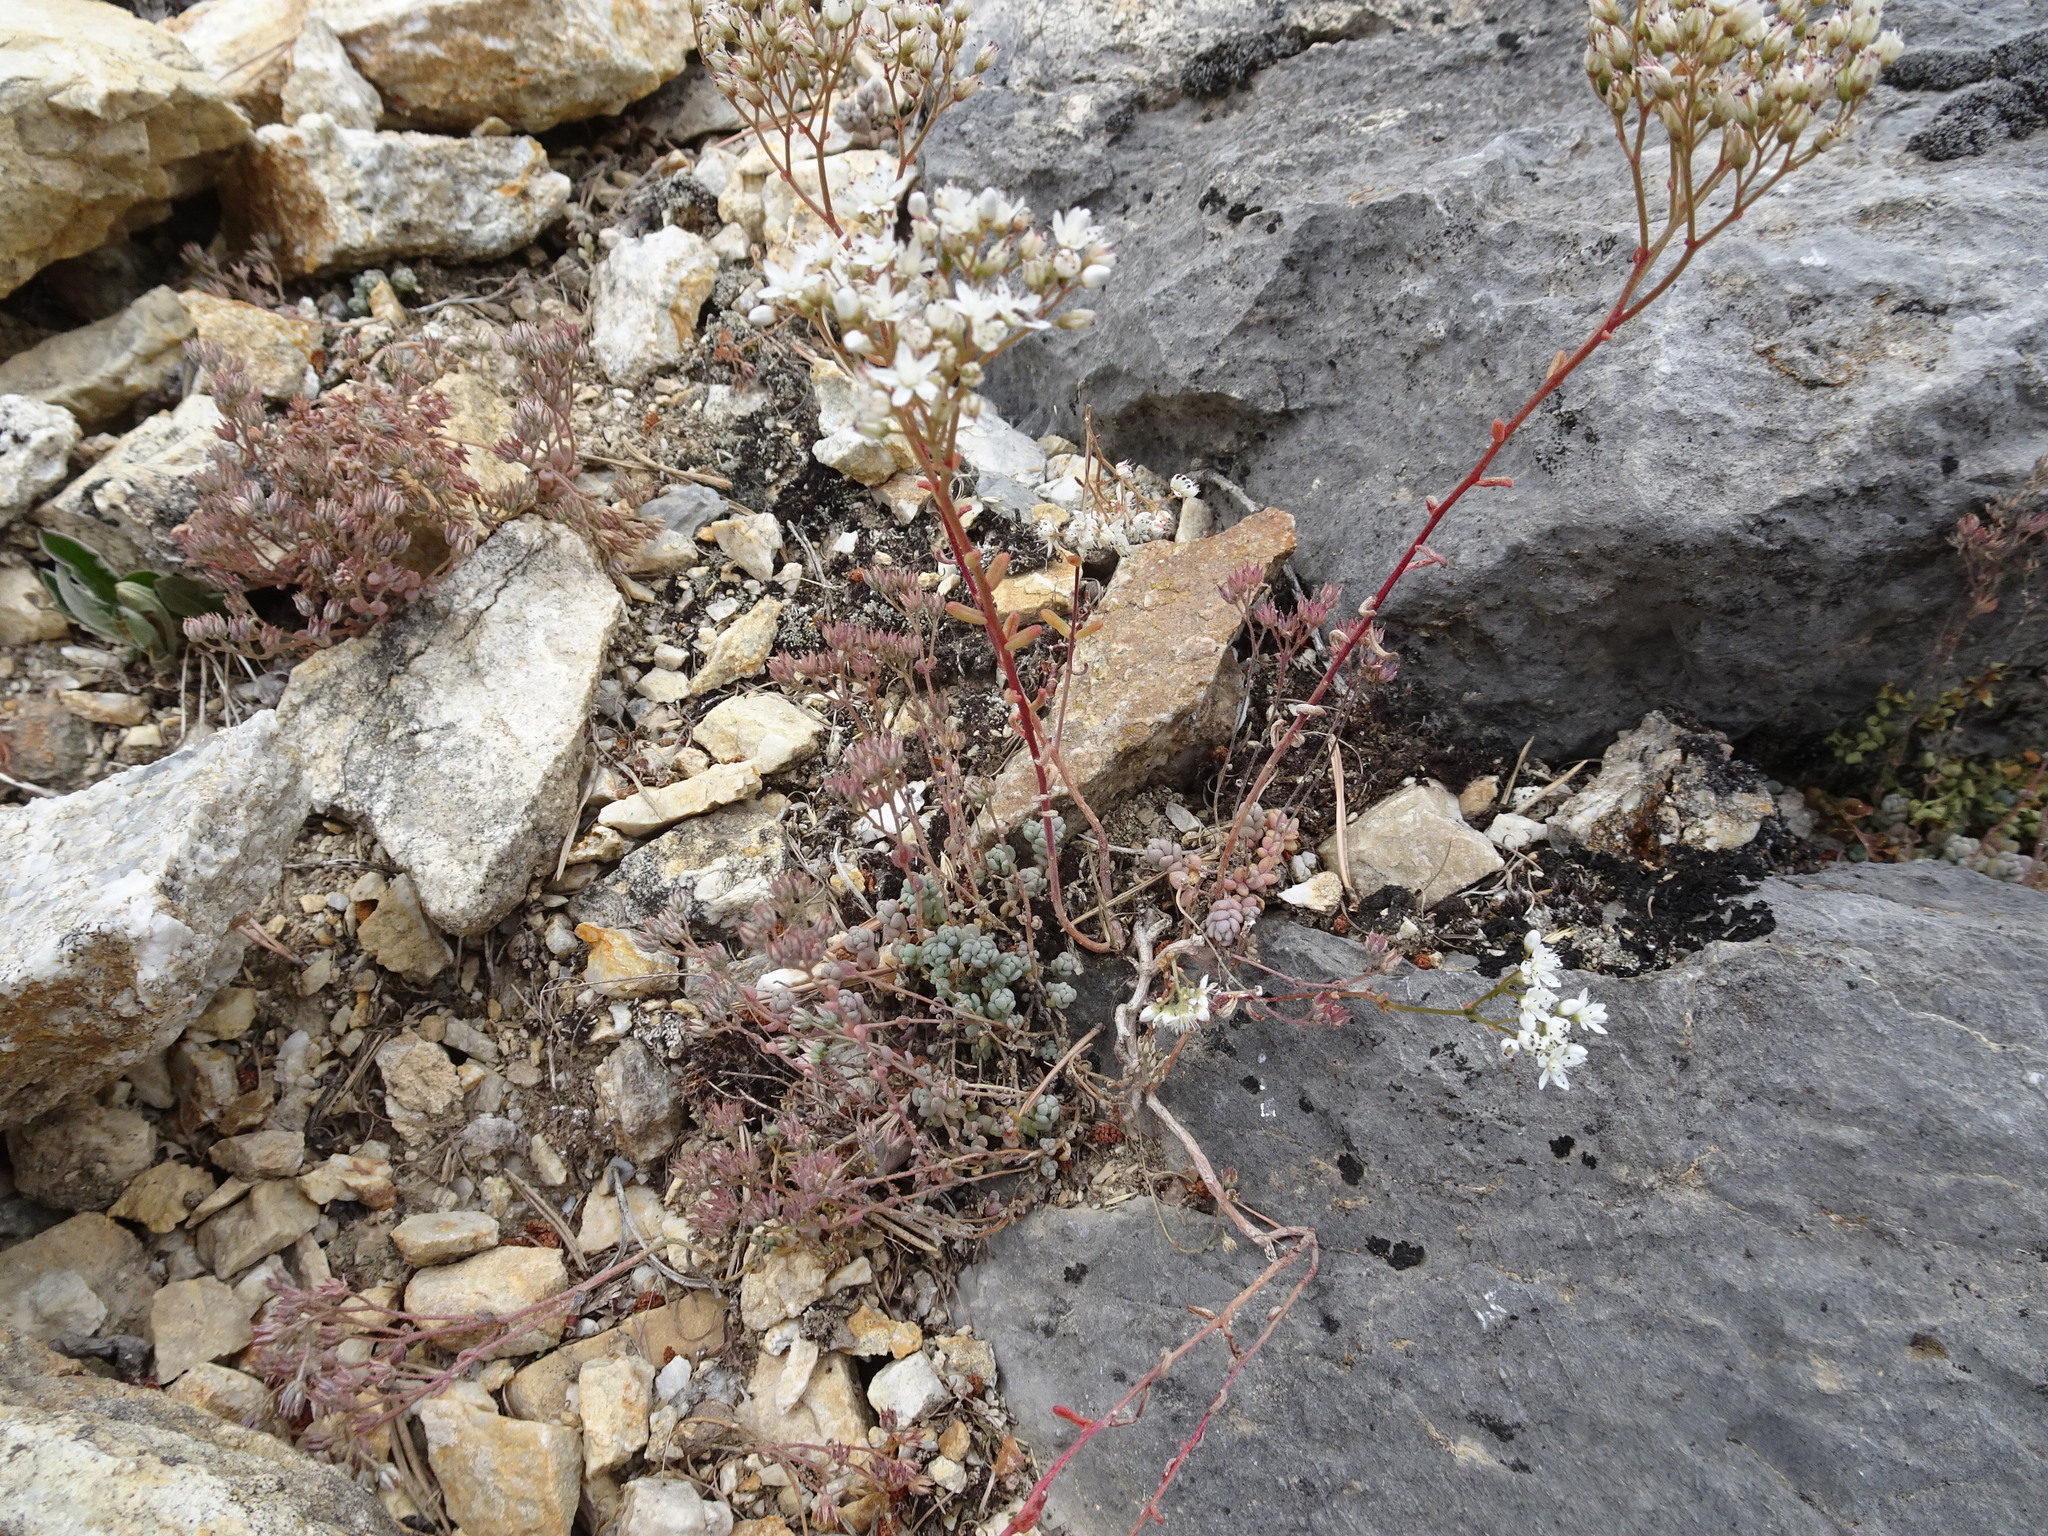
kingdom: Plantae
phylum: Tracheophyta
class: Magnoliopsida
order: Saxifragales
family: Crassulaceae
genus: Sedum
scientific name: Sedum dasyphyllum
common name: Thick-leaf stonecrop
